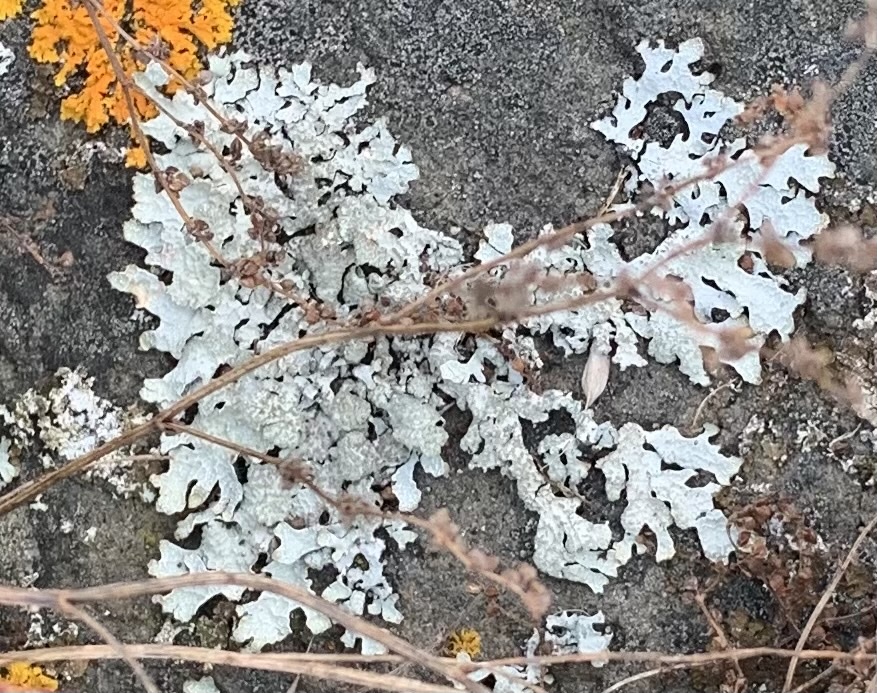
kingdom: Fungi
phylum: Ascomycota
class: Lecanoromycetes
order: Lecanorales
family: Parmeliaceae
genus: Parmelia
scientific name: Parmelia sulcata
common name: Netted shield lichen
